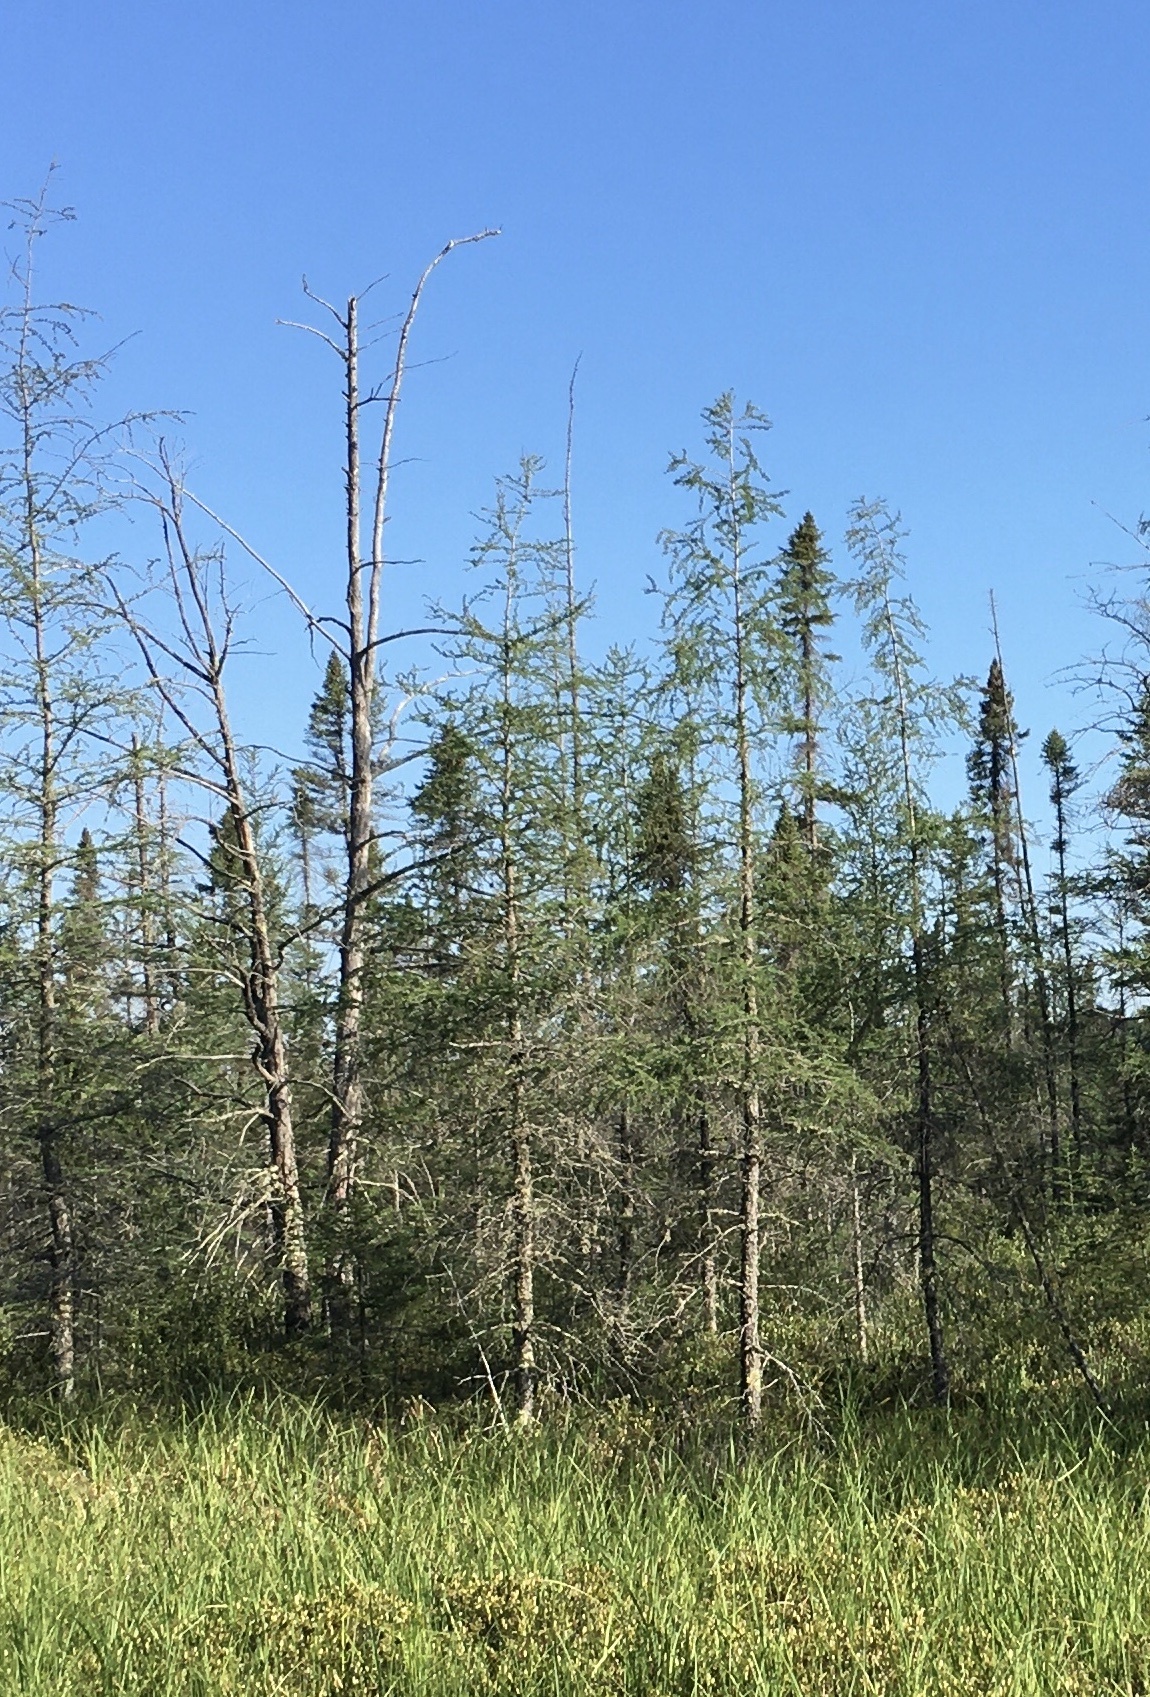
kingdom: Plantae
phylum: Tracheophyta
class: Pinopsida
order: Pinales
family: Pinaceae
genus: Larix
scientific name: Larix laricina
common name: American larch
